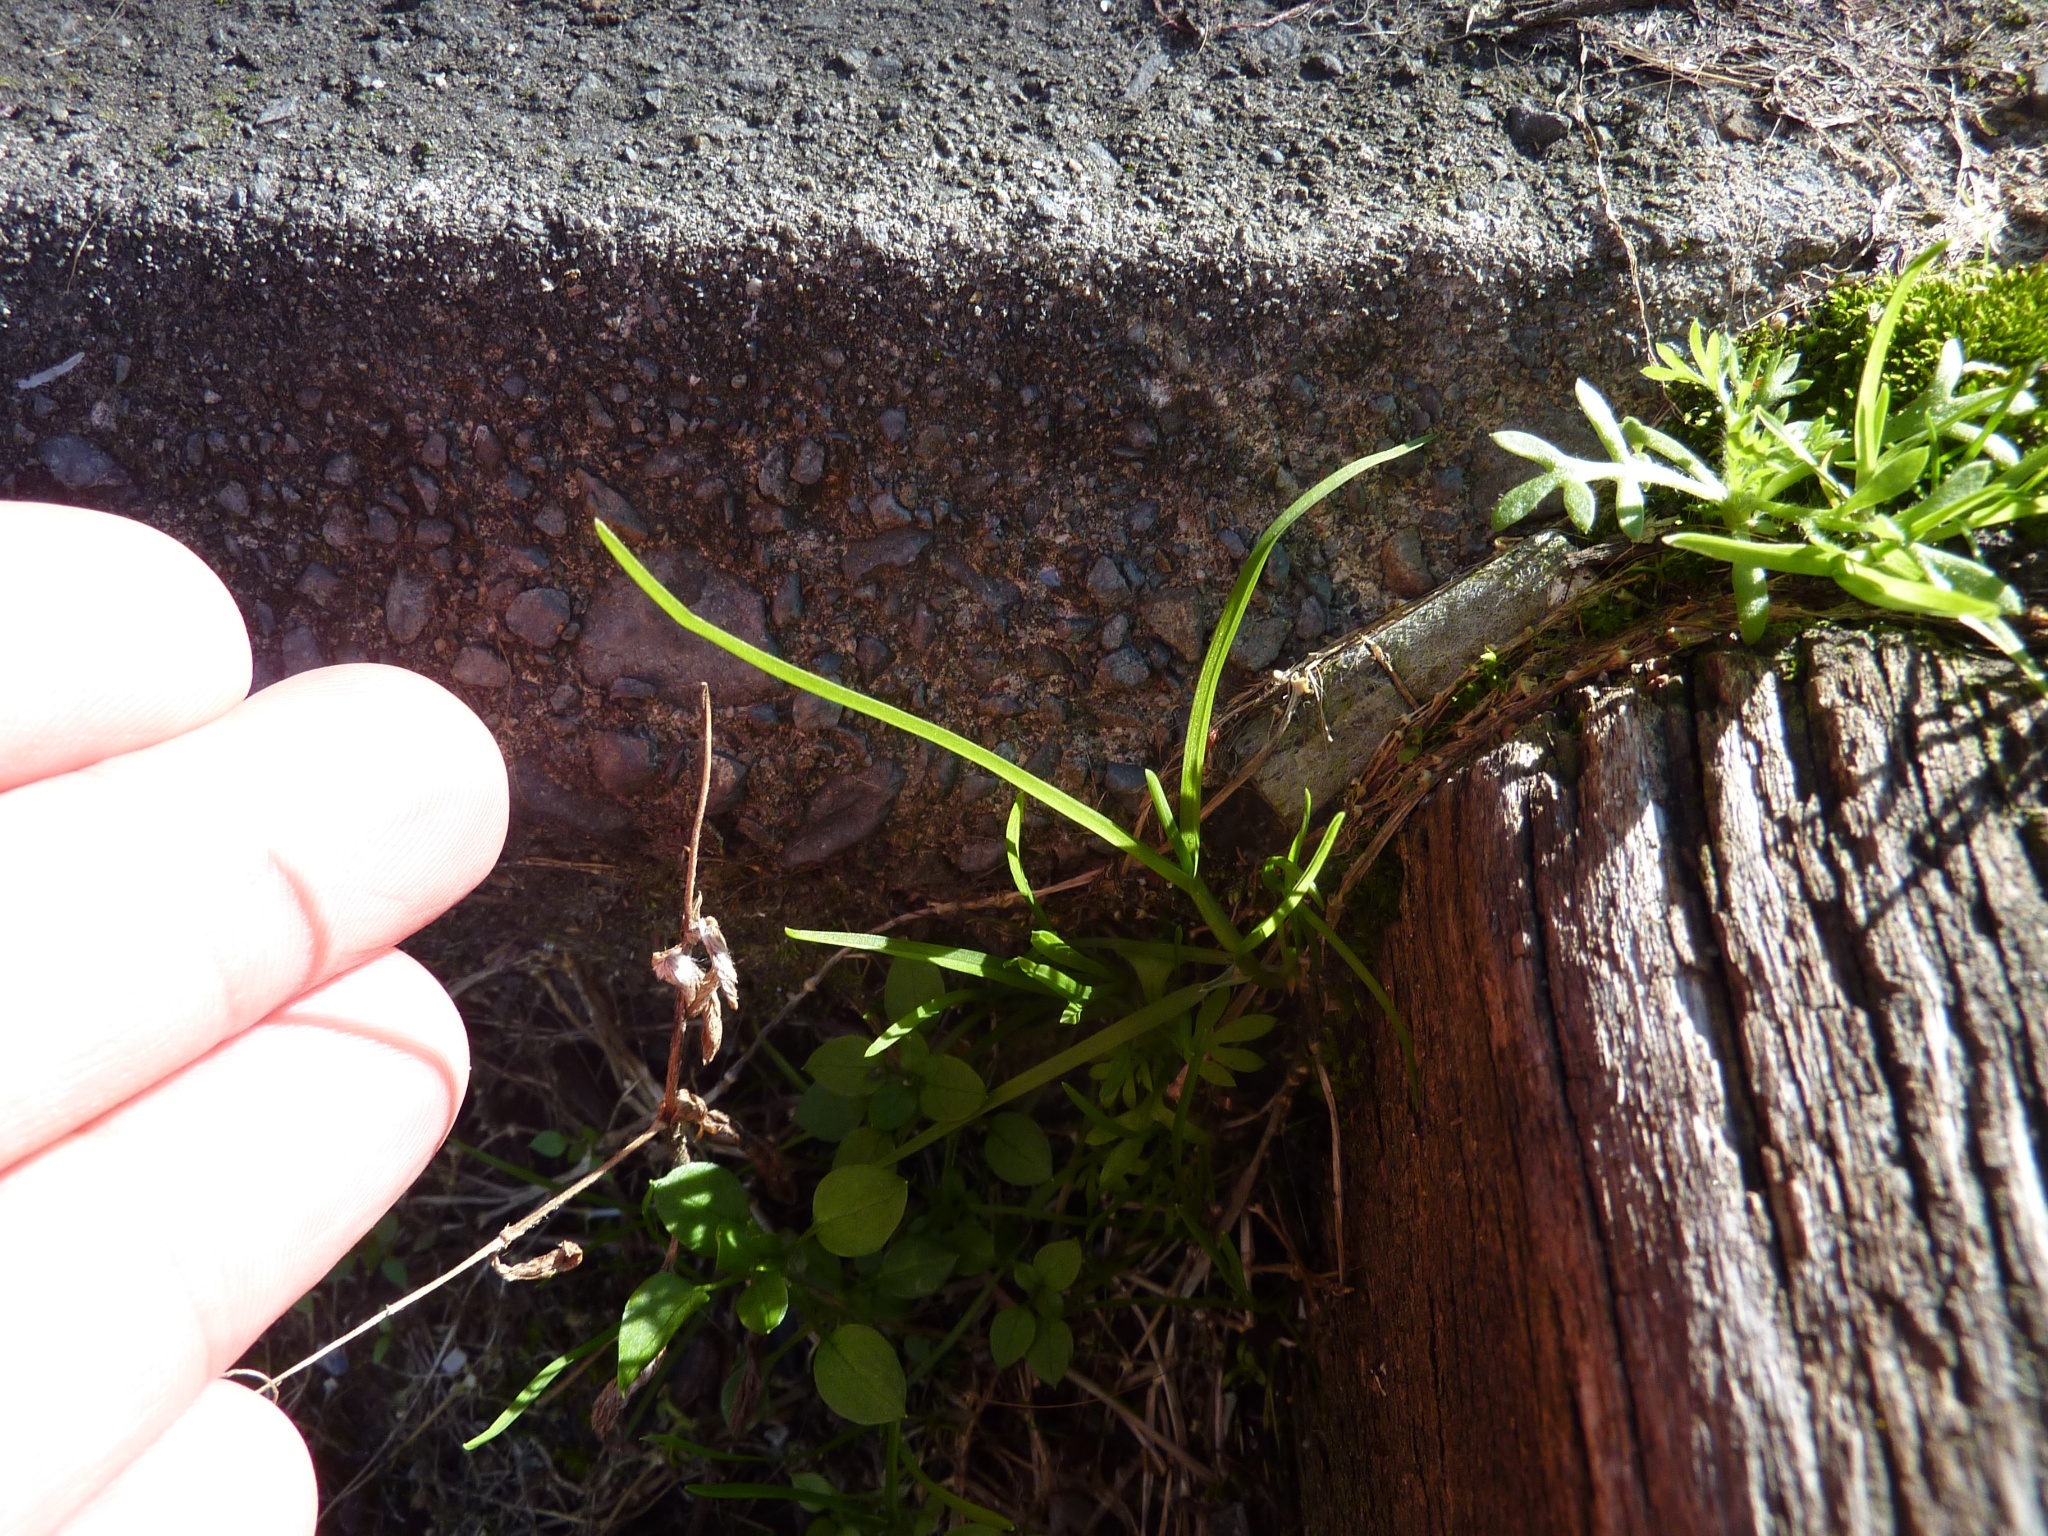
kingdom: Plantae
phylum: Tracheophyta
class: Liliopsida
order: Poales
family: Poaceae
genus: Poa
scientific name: Poa annua
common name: Annual bluegrass
